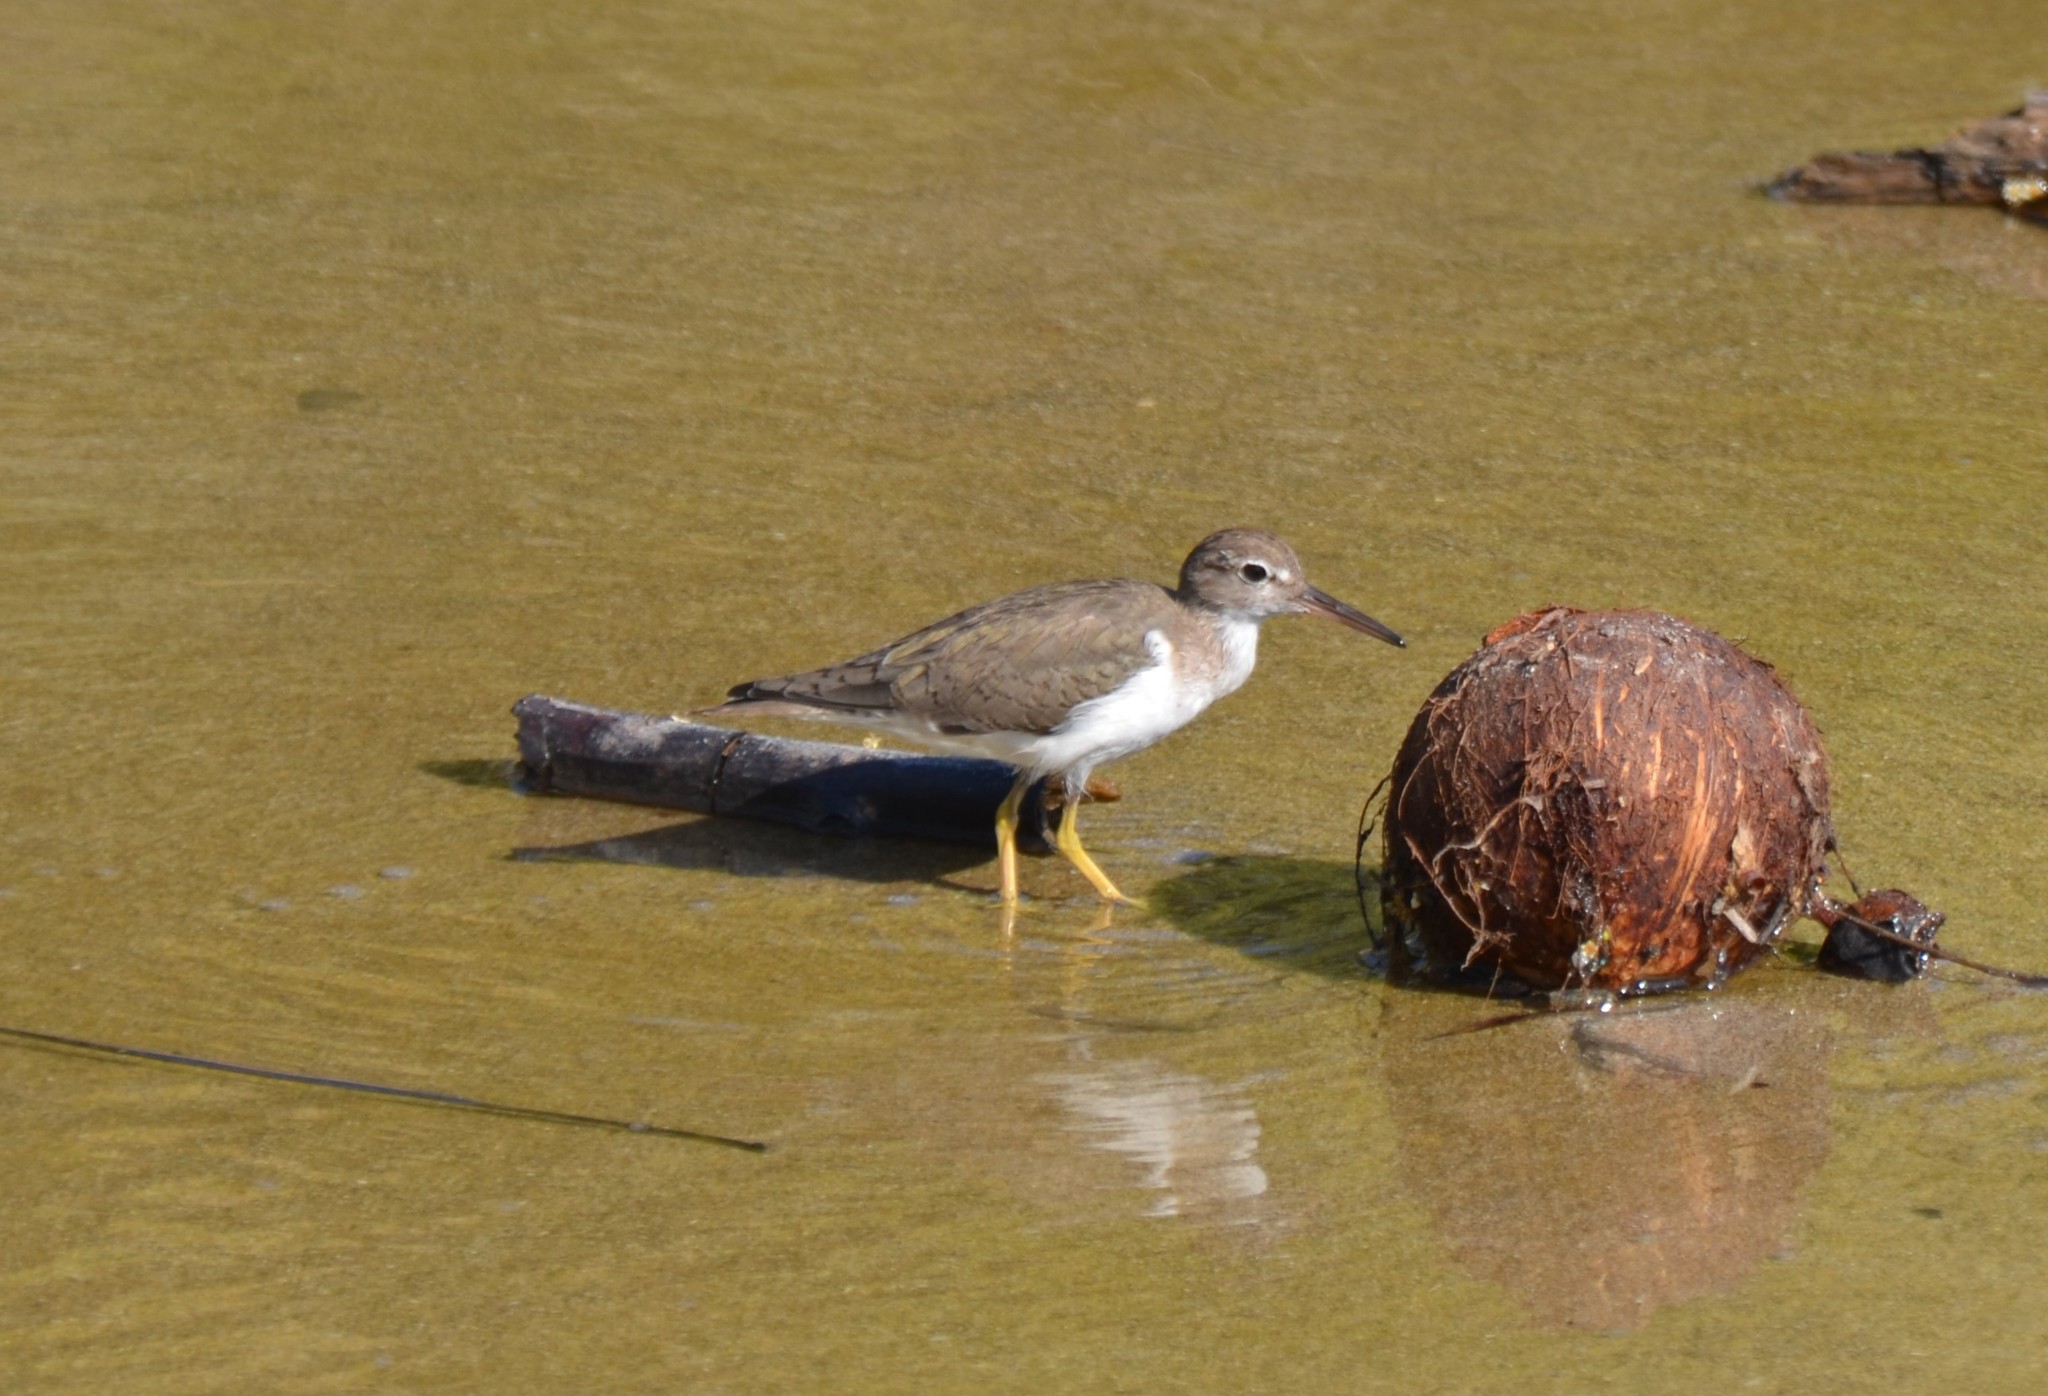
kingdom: Animalia
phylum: Chordata
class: Aves
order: Charadriiformes
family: Scolopacidae
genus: Actitis
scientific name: Actitis macularius
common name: Spotted sandpiper
